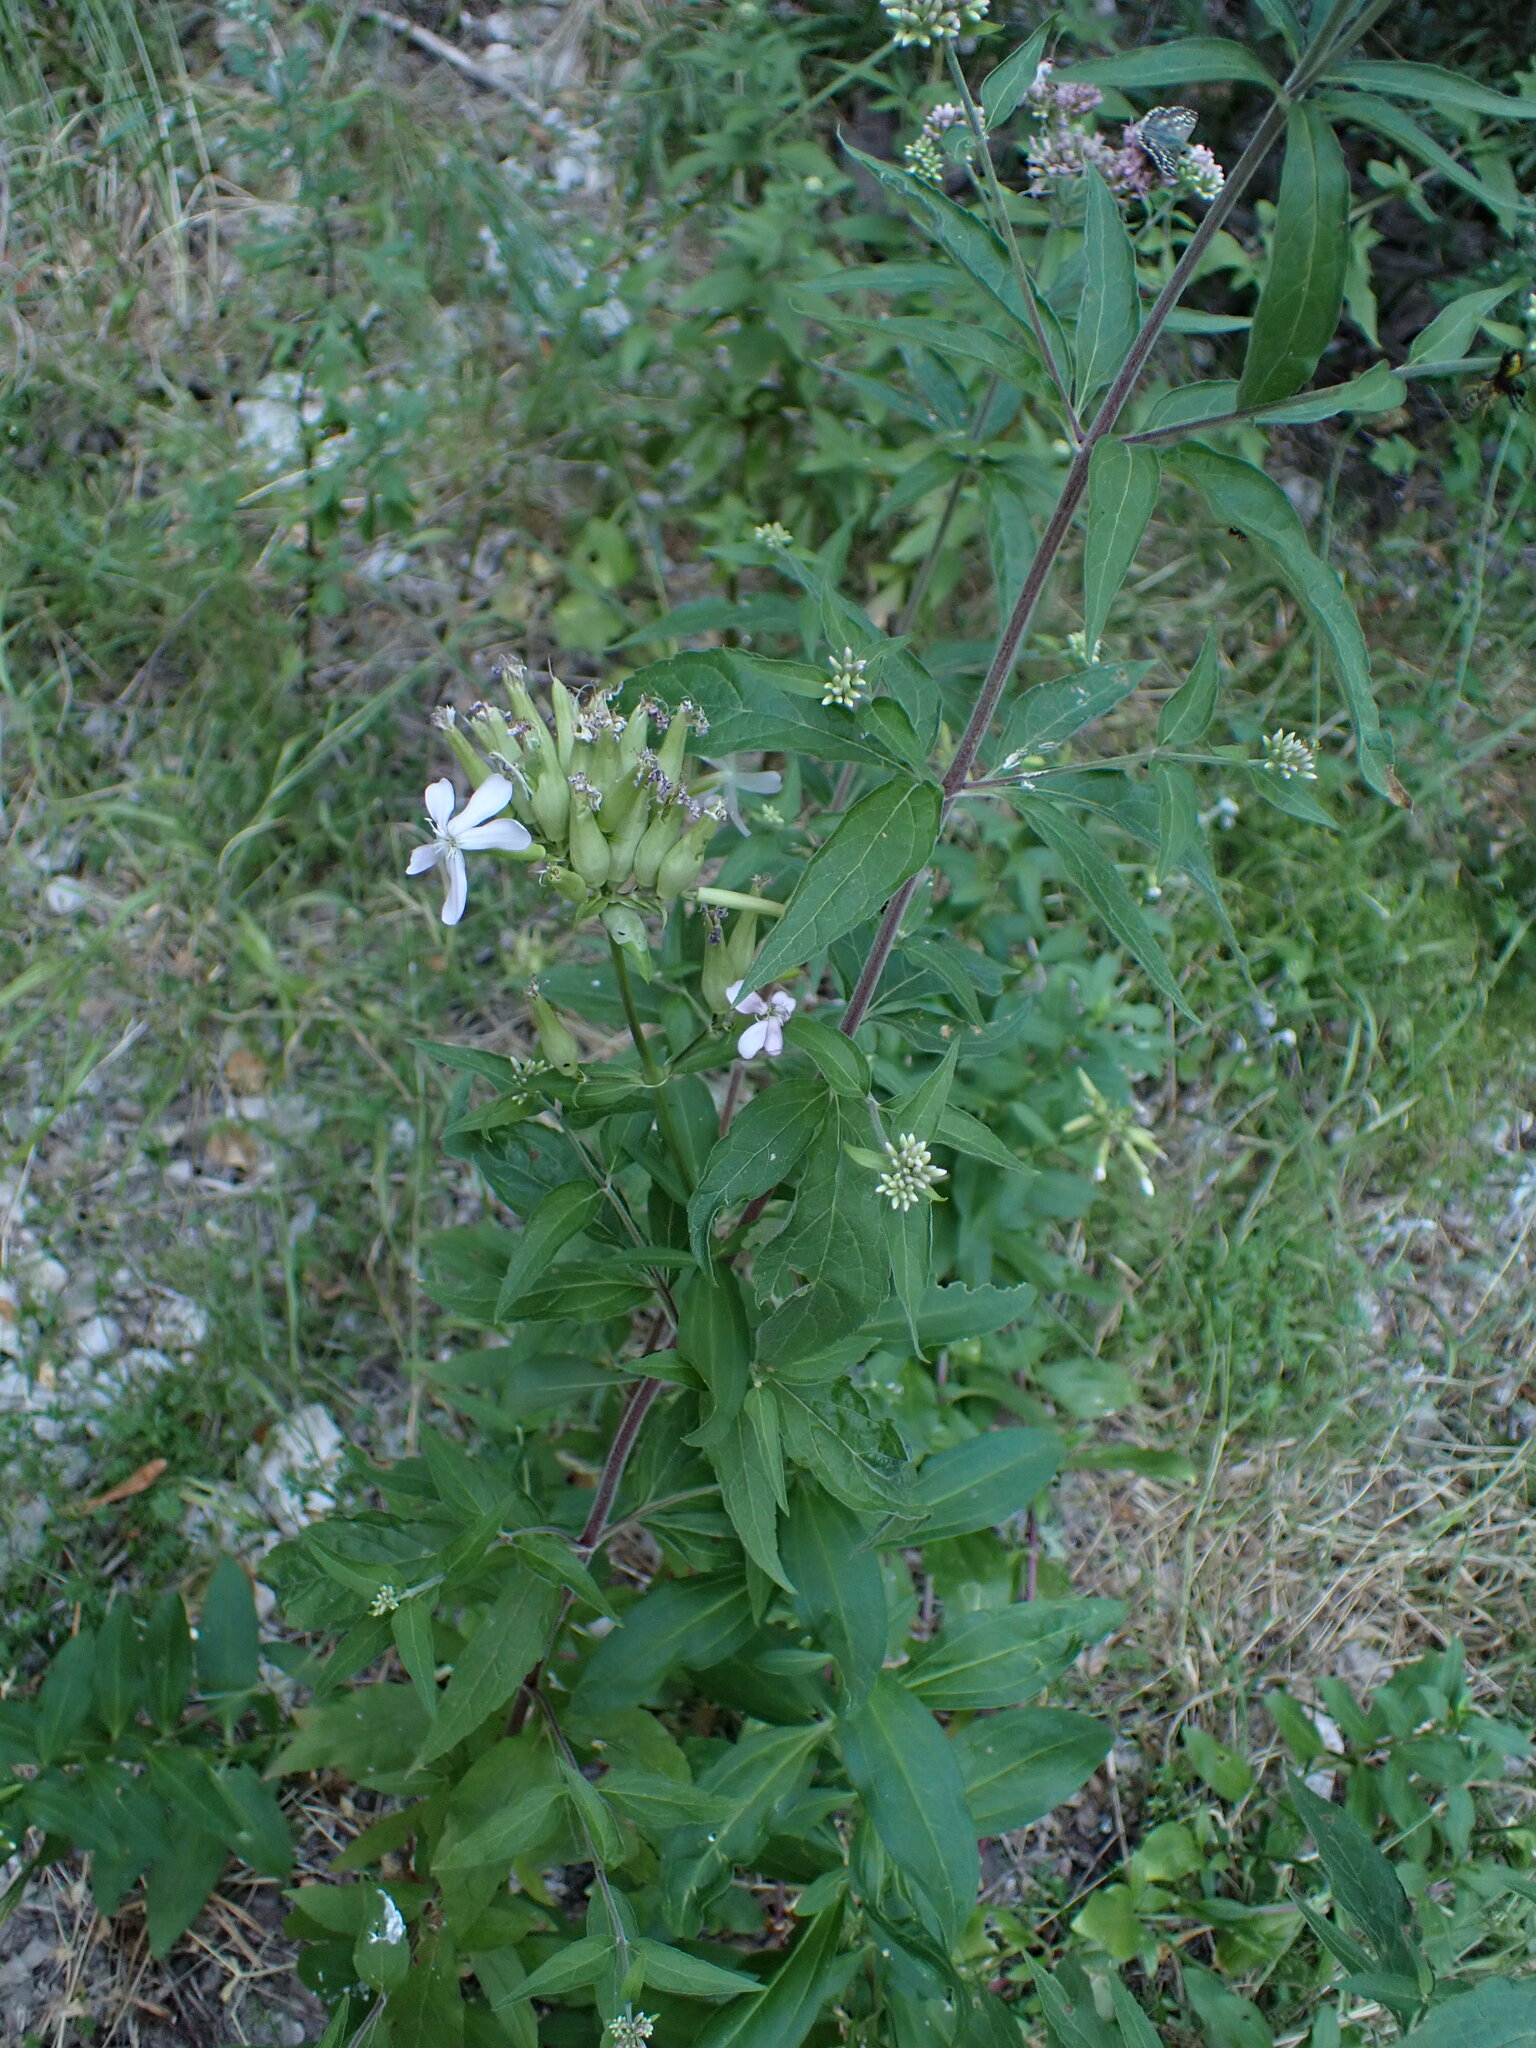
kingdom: Plantae
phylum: Tracheophyta
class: Magnoliopsida
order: Caryophyllales
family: Caryophyllaceae
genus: Saponaria
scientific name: Saponaria officinalis
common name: Soapwort
